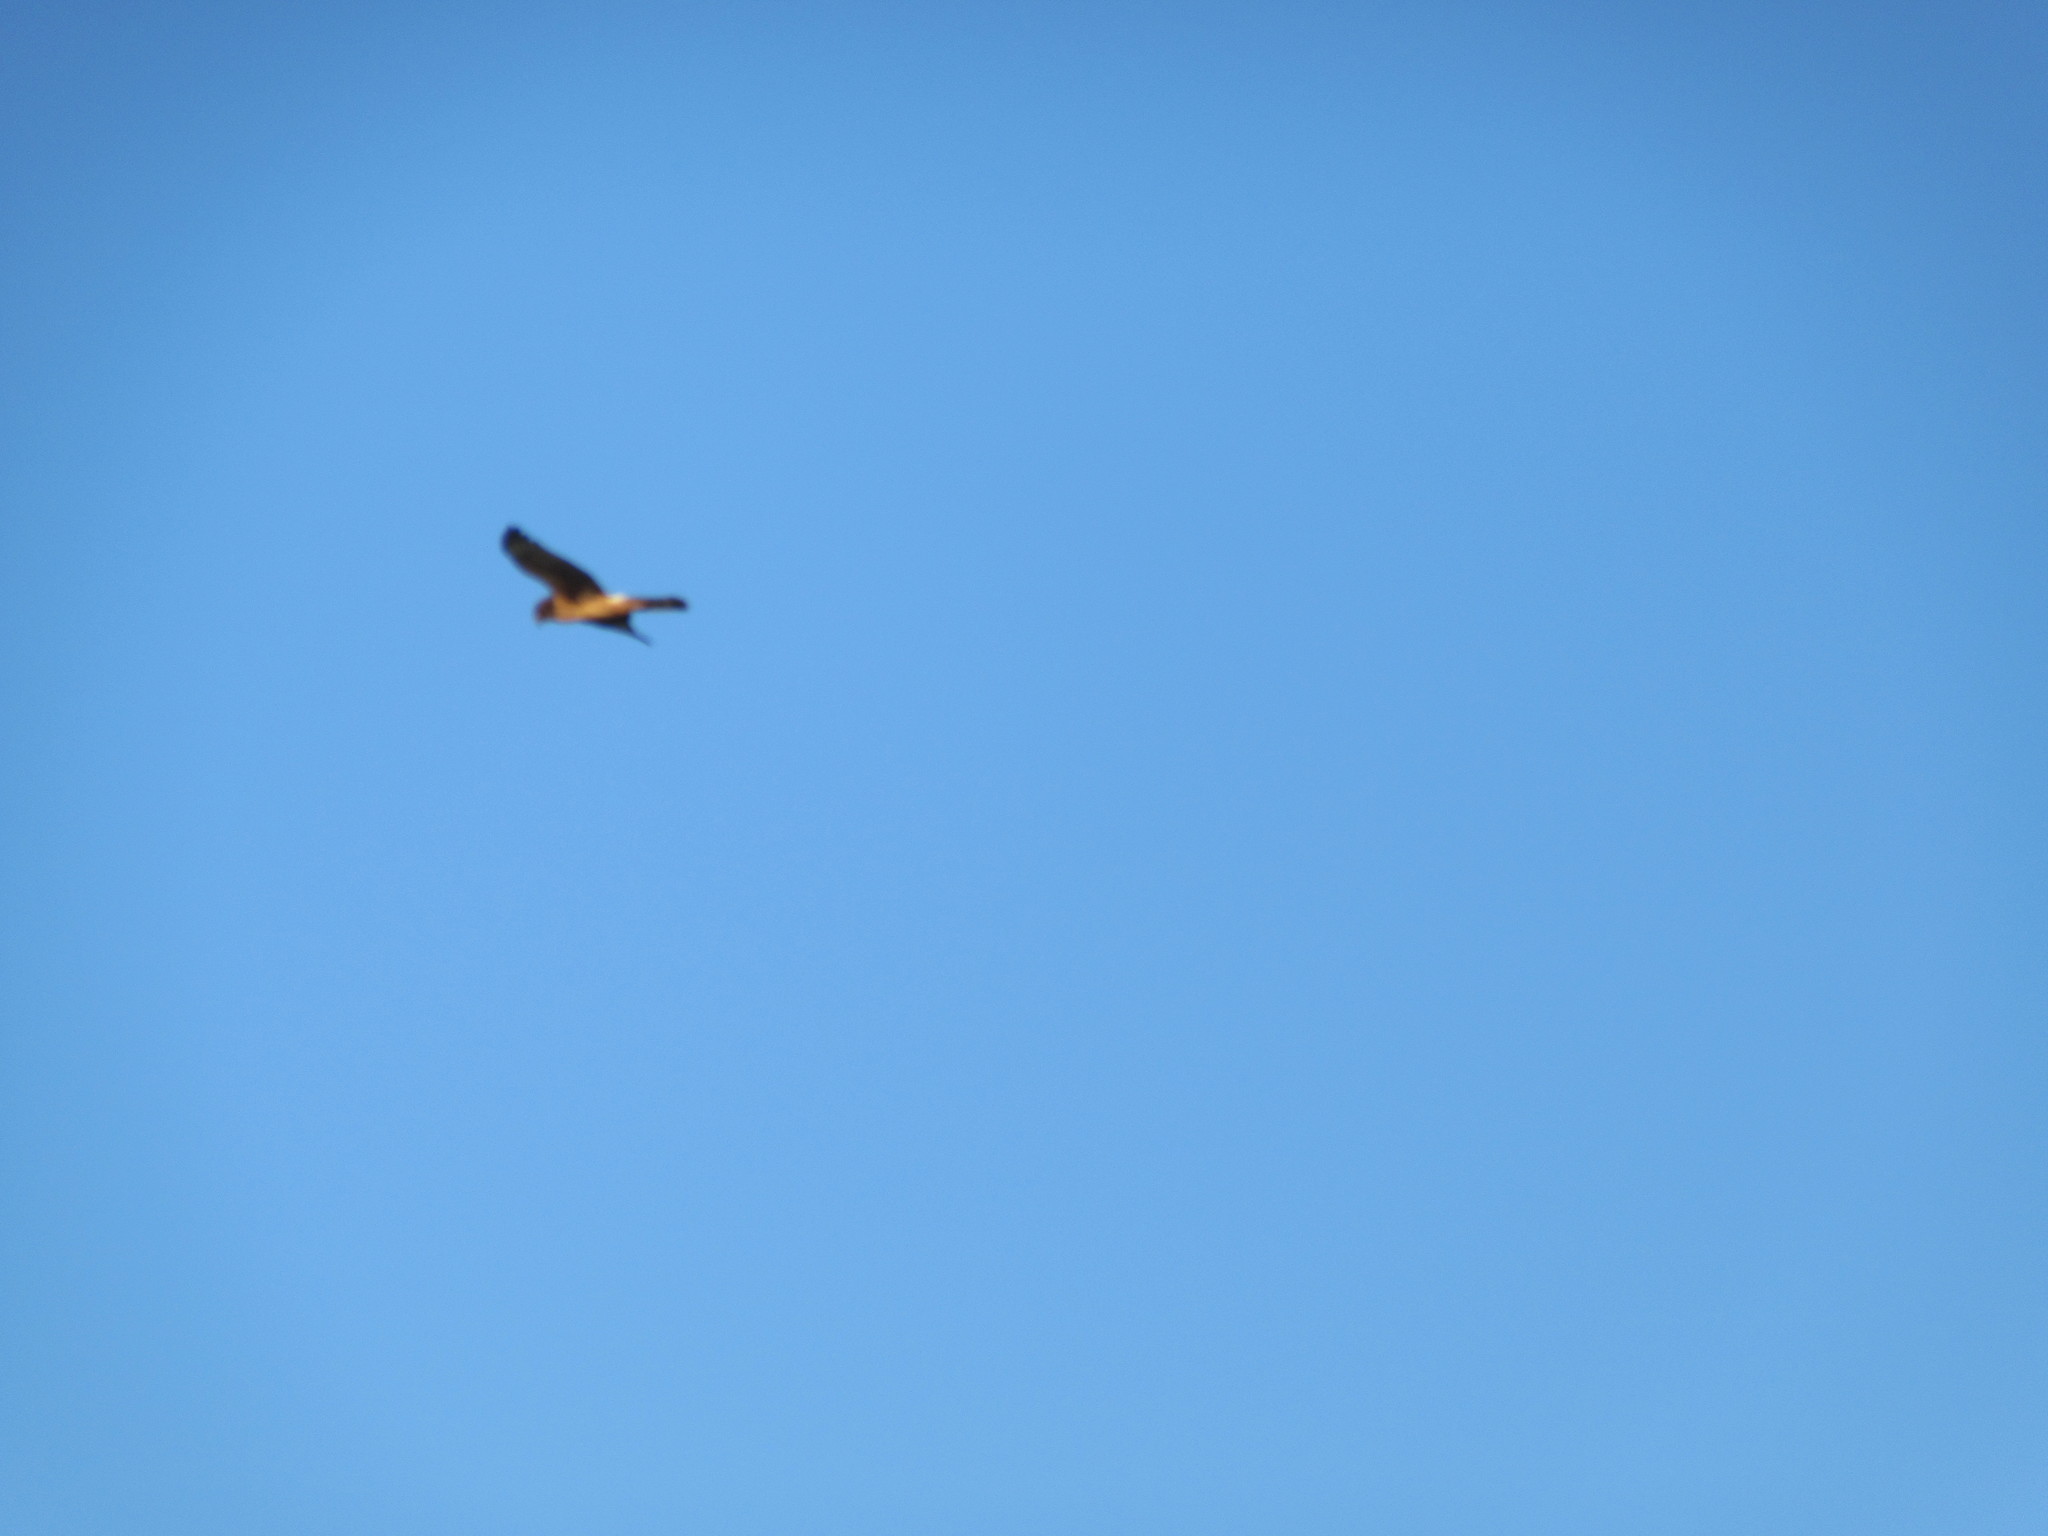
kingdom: Animalia
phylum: Chordata
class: Aves
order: Accipitriformes
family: Accipitridae
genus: Circus
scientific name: Circus cyaneus
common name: Hen harrier
